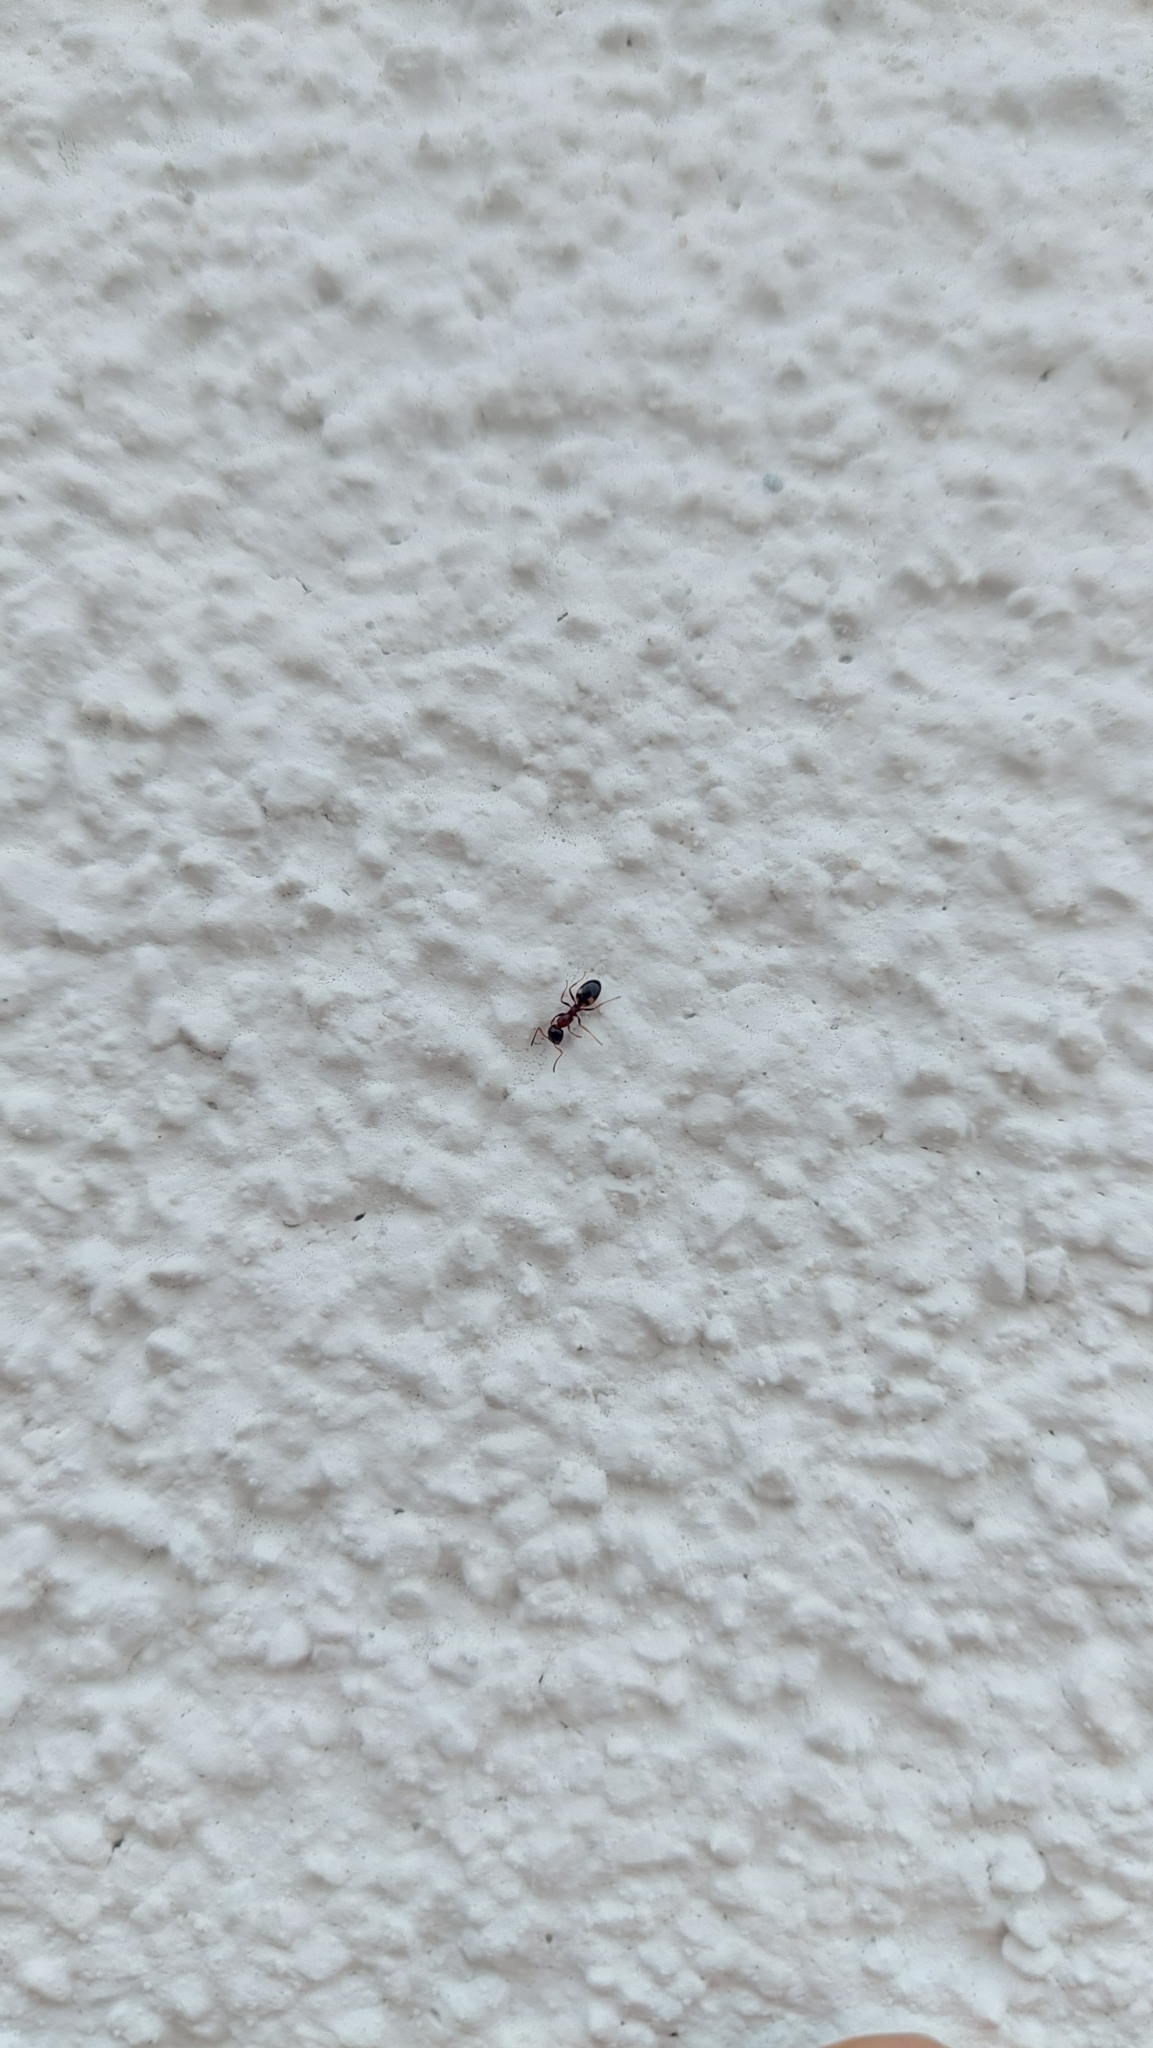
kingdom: Animalia
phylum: Arthropoda
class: Insecta
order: Hymenoptera
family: Formicidae
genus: Dolichoderus
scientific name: Dolichoderus quadripunctatus
